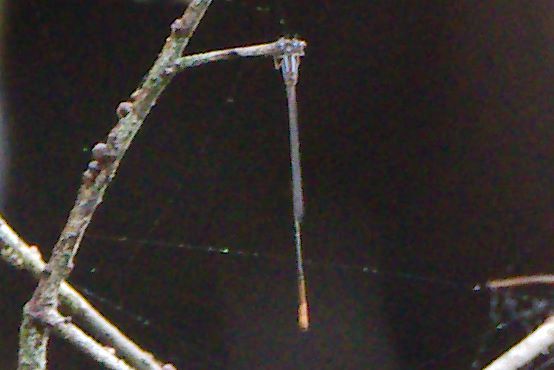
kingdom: Animalia
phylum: Arthropoda
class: Insecta
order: Odonata
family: Coenagrionidae
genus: Leptobasis
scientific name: Leptobasis lucifer
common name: Lucifer swampdamsel
